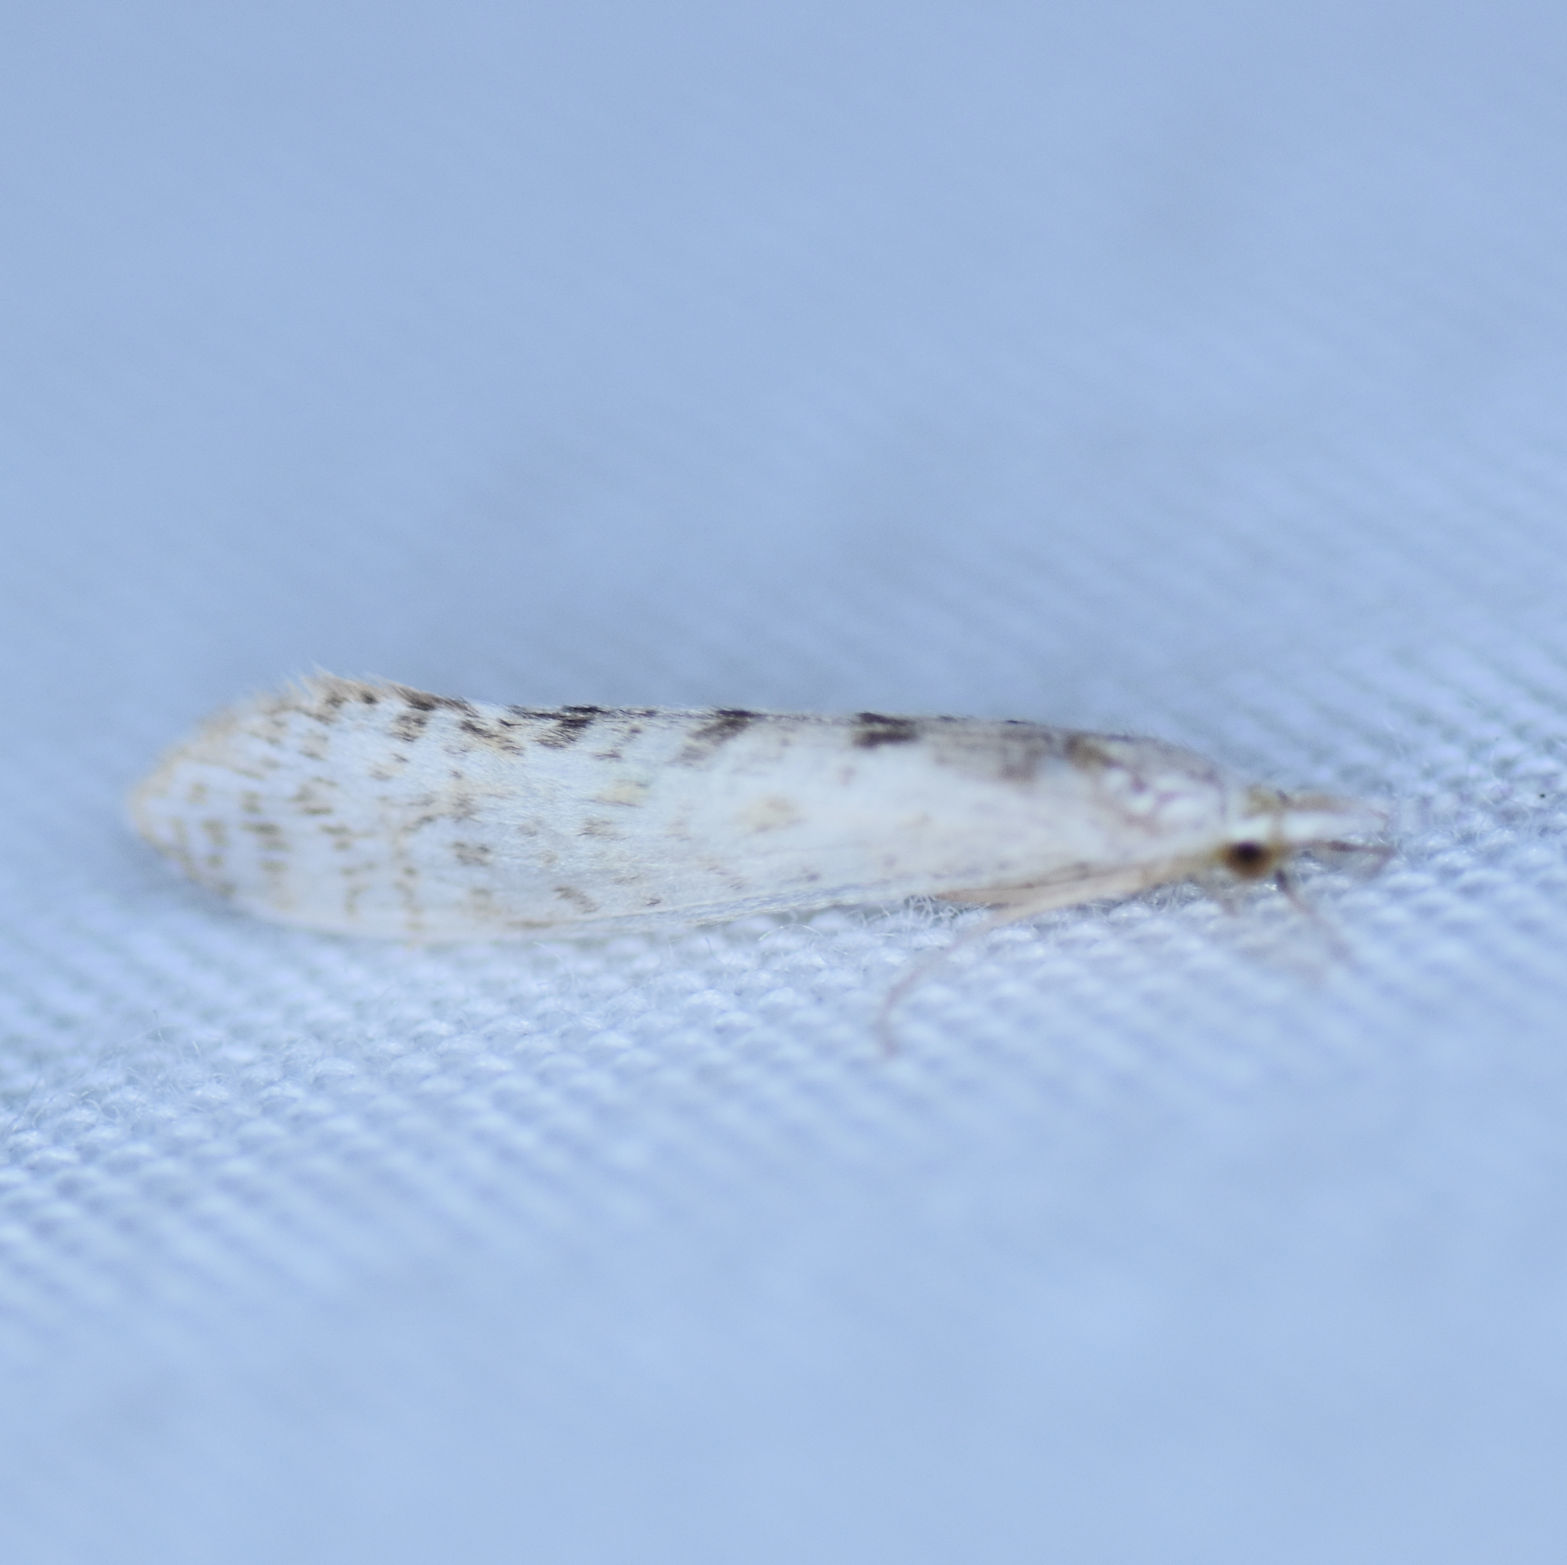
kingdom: Animalia
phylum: Arthropoda
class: Insecta
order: Trichoptera
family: Leptoceridae
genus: Nectopsyche
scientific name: Nectopsyche diarina
